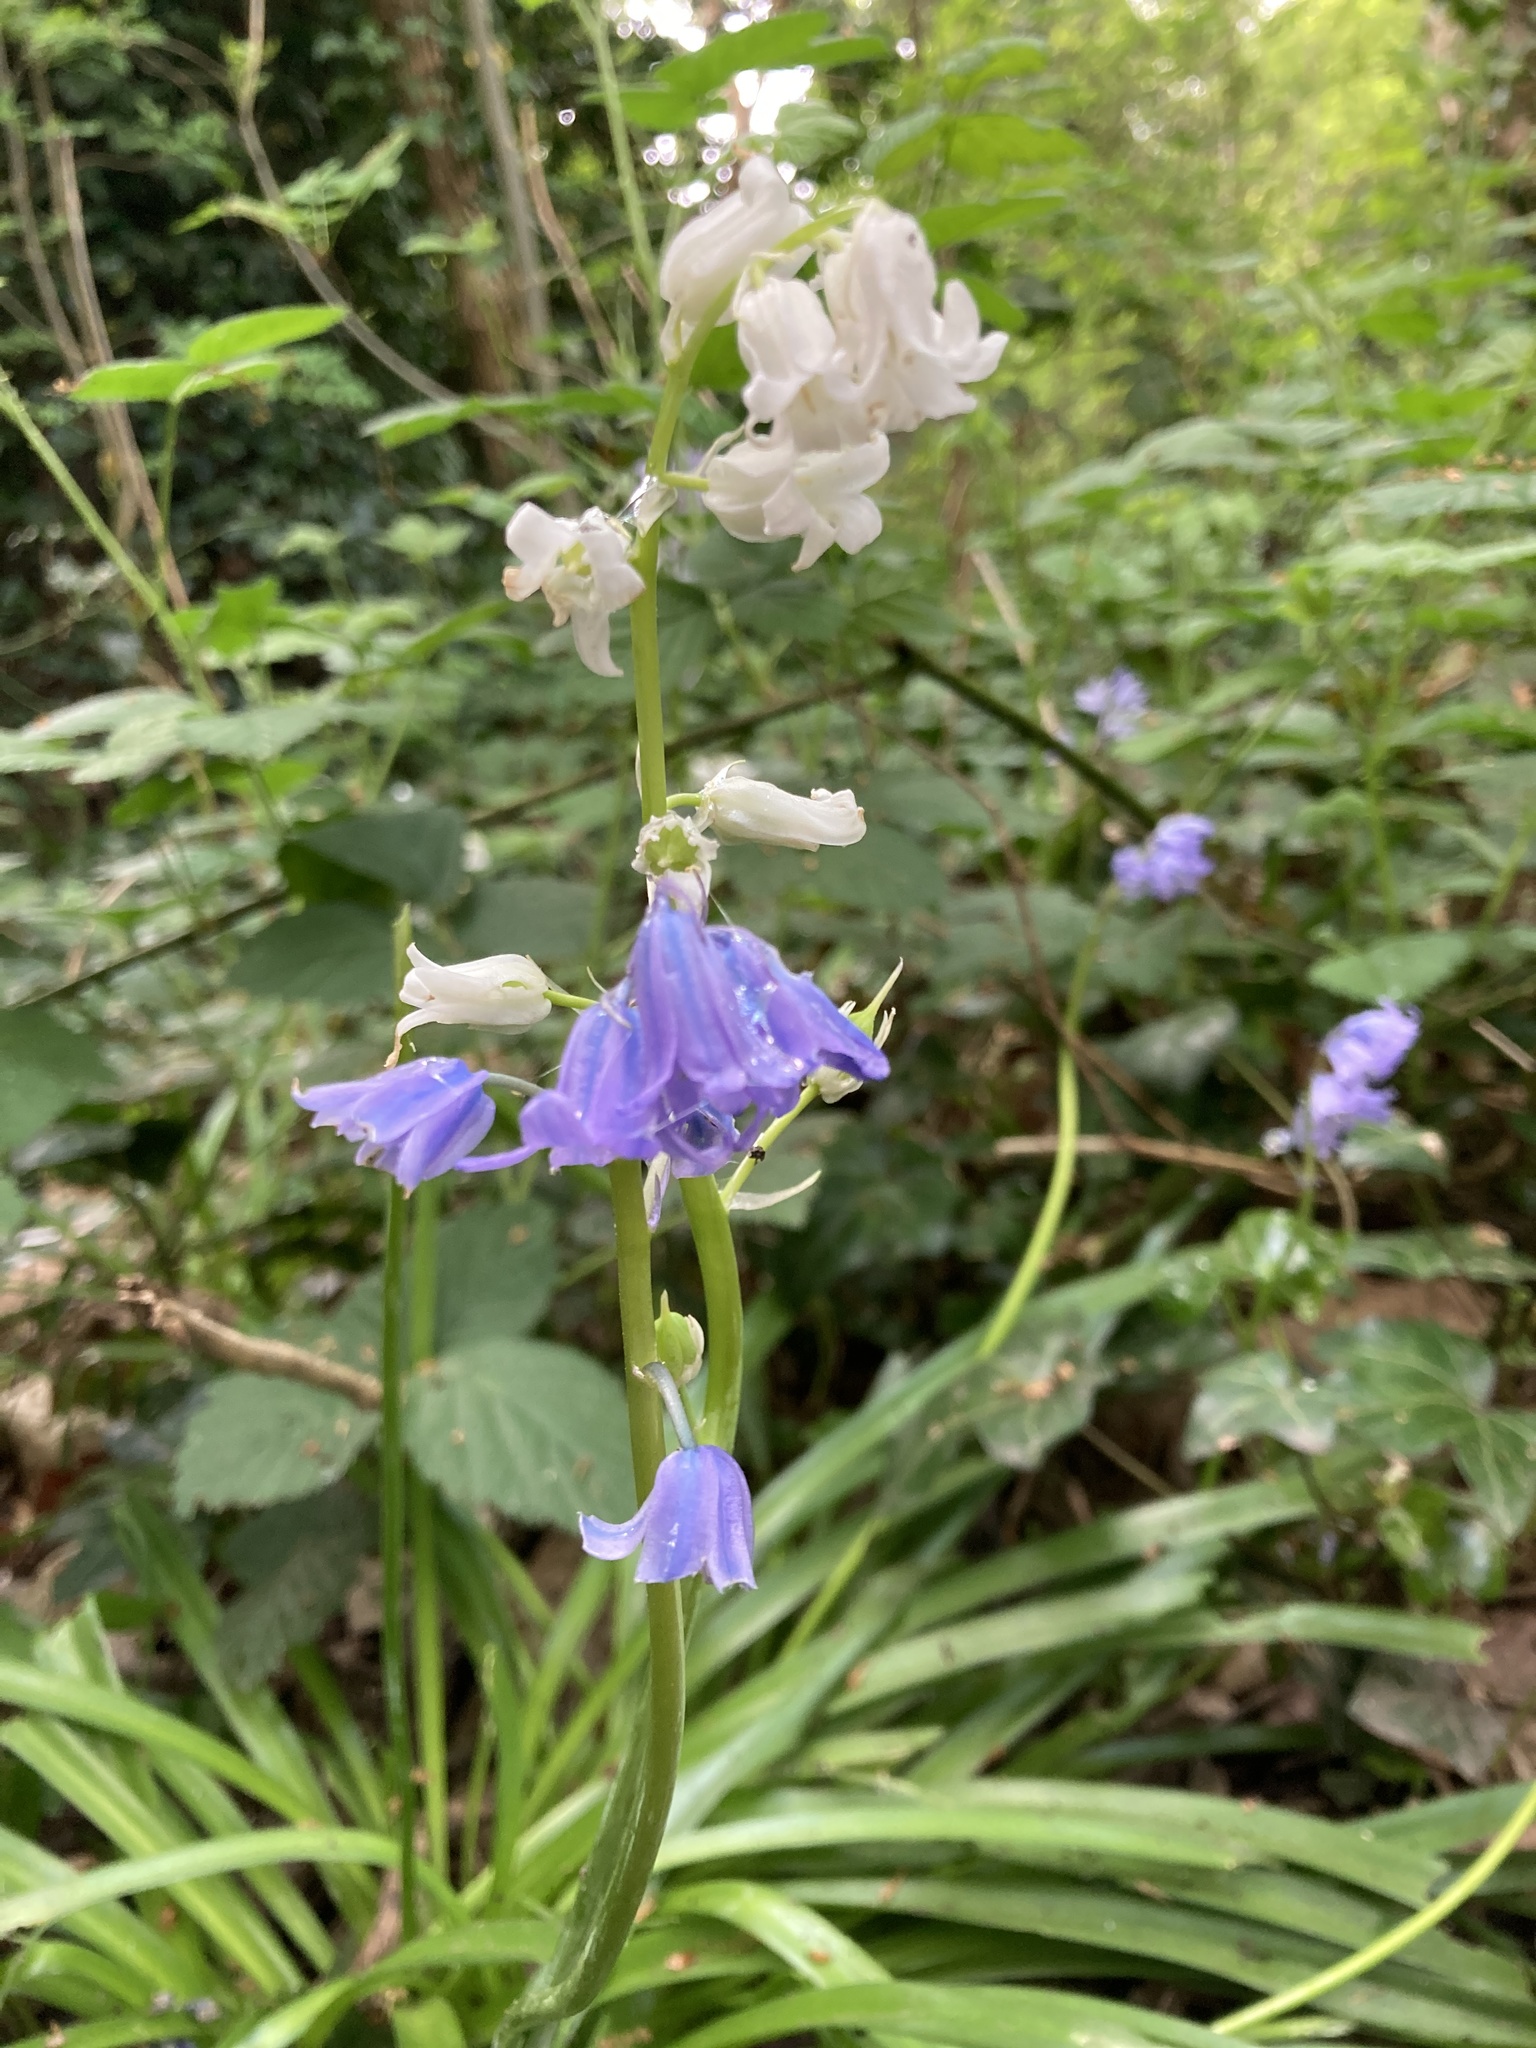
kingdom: Plantae
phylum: Tracheophyta
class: Liliopsida
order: Asparagales
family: Asparagaceae
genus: Hyacinthoides
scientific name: Hyacinthoides non-scripta
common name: Bluebell
